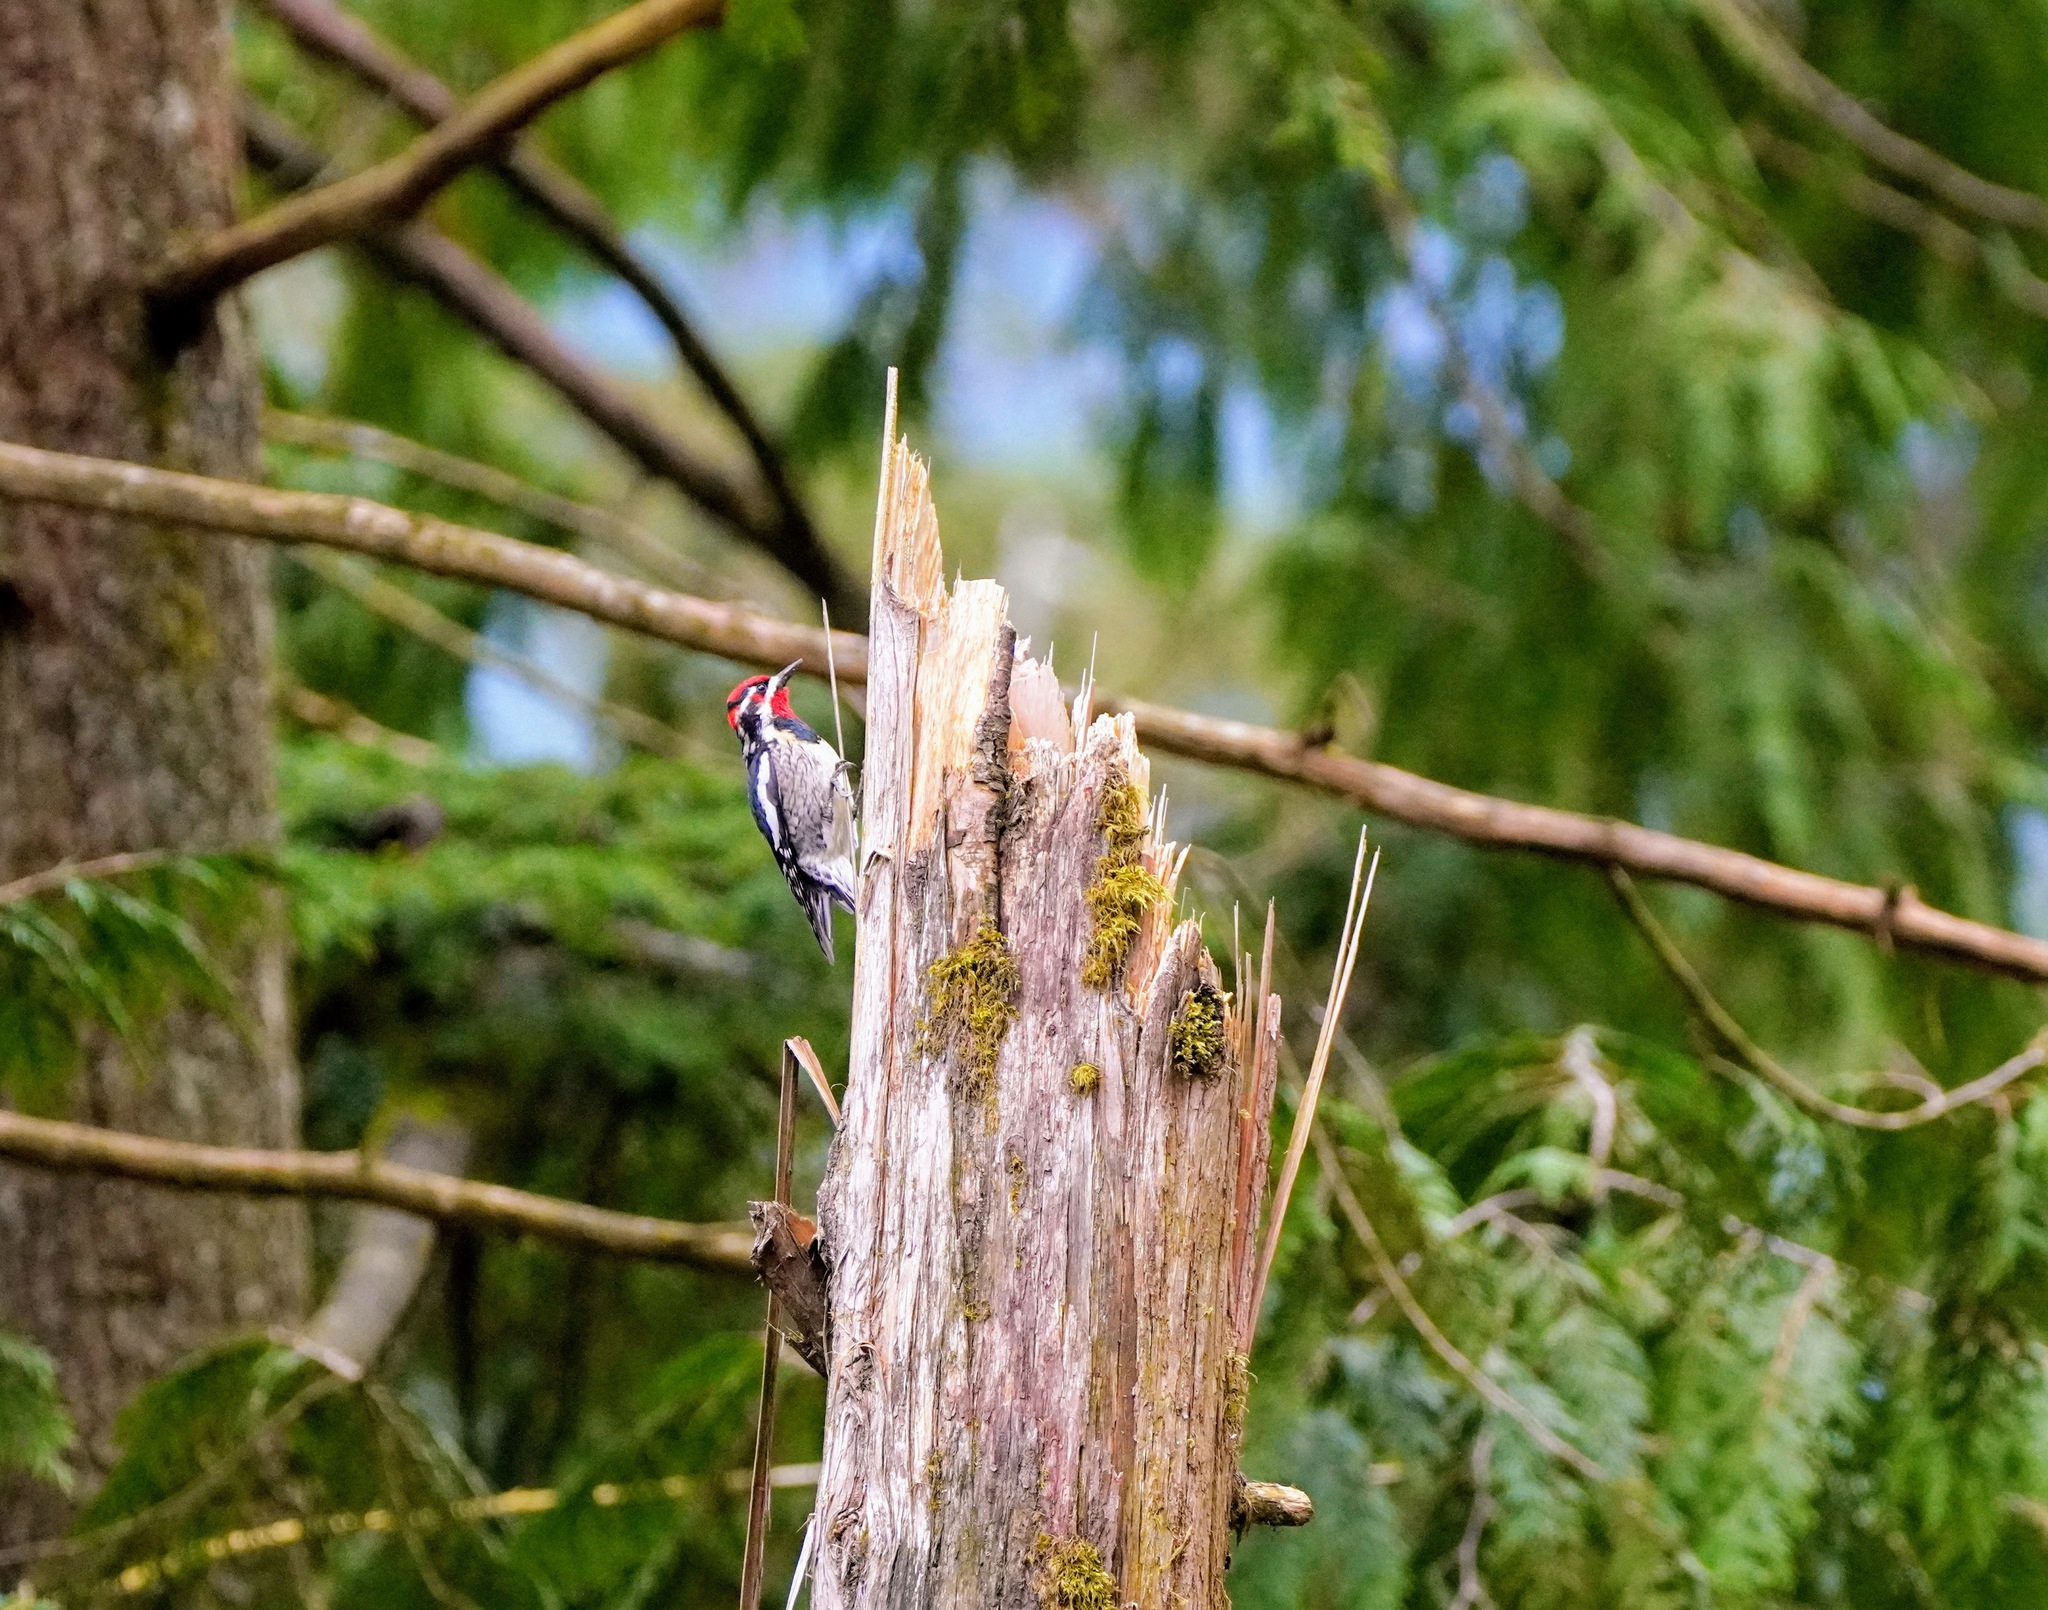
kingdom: Animalia
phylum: Chordata
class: Aves
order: Piciformes
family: Picidae
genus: Sphyrapicus
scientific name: Sphyrapicus nuchalis
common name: Red-naped sapsucker
